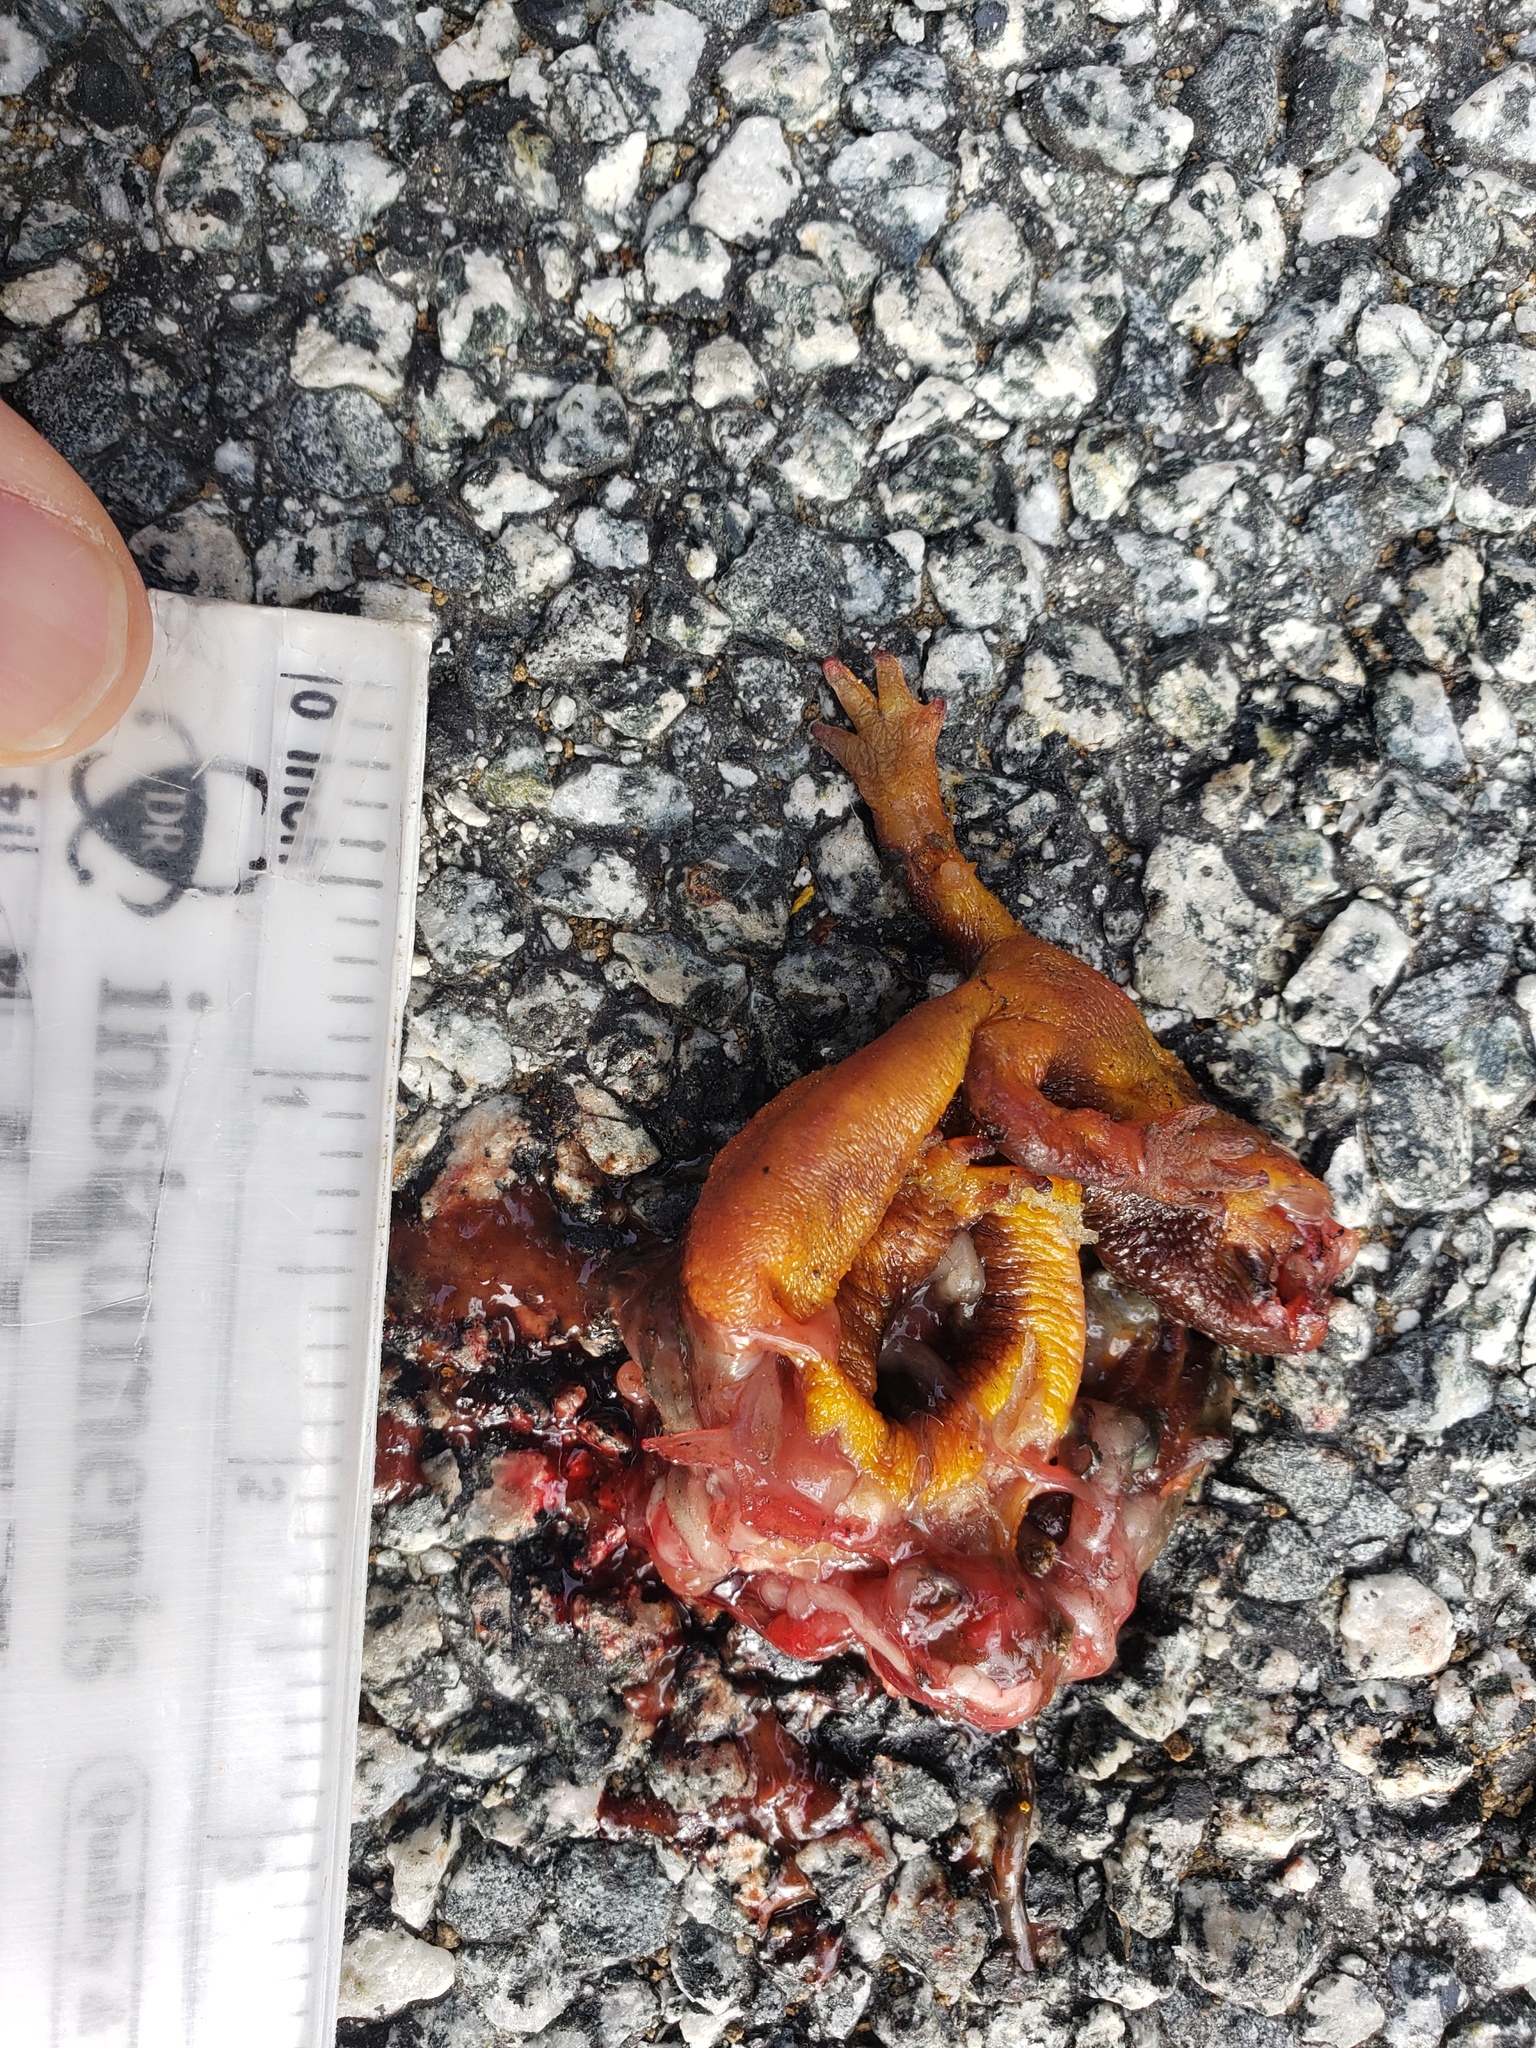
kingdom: Animalia
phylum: Chordata
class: Amphibia
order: Caudata
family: Salamandridae
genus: Taricha
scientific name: Taricha
